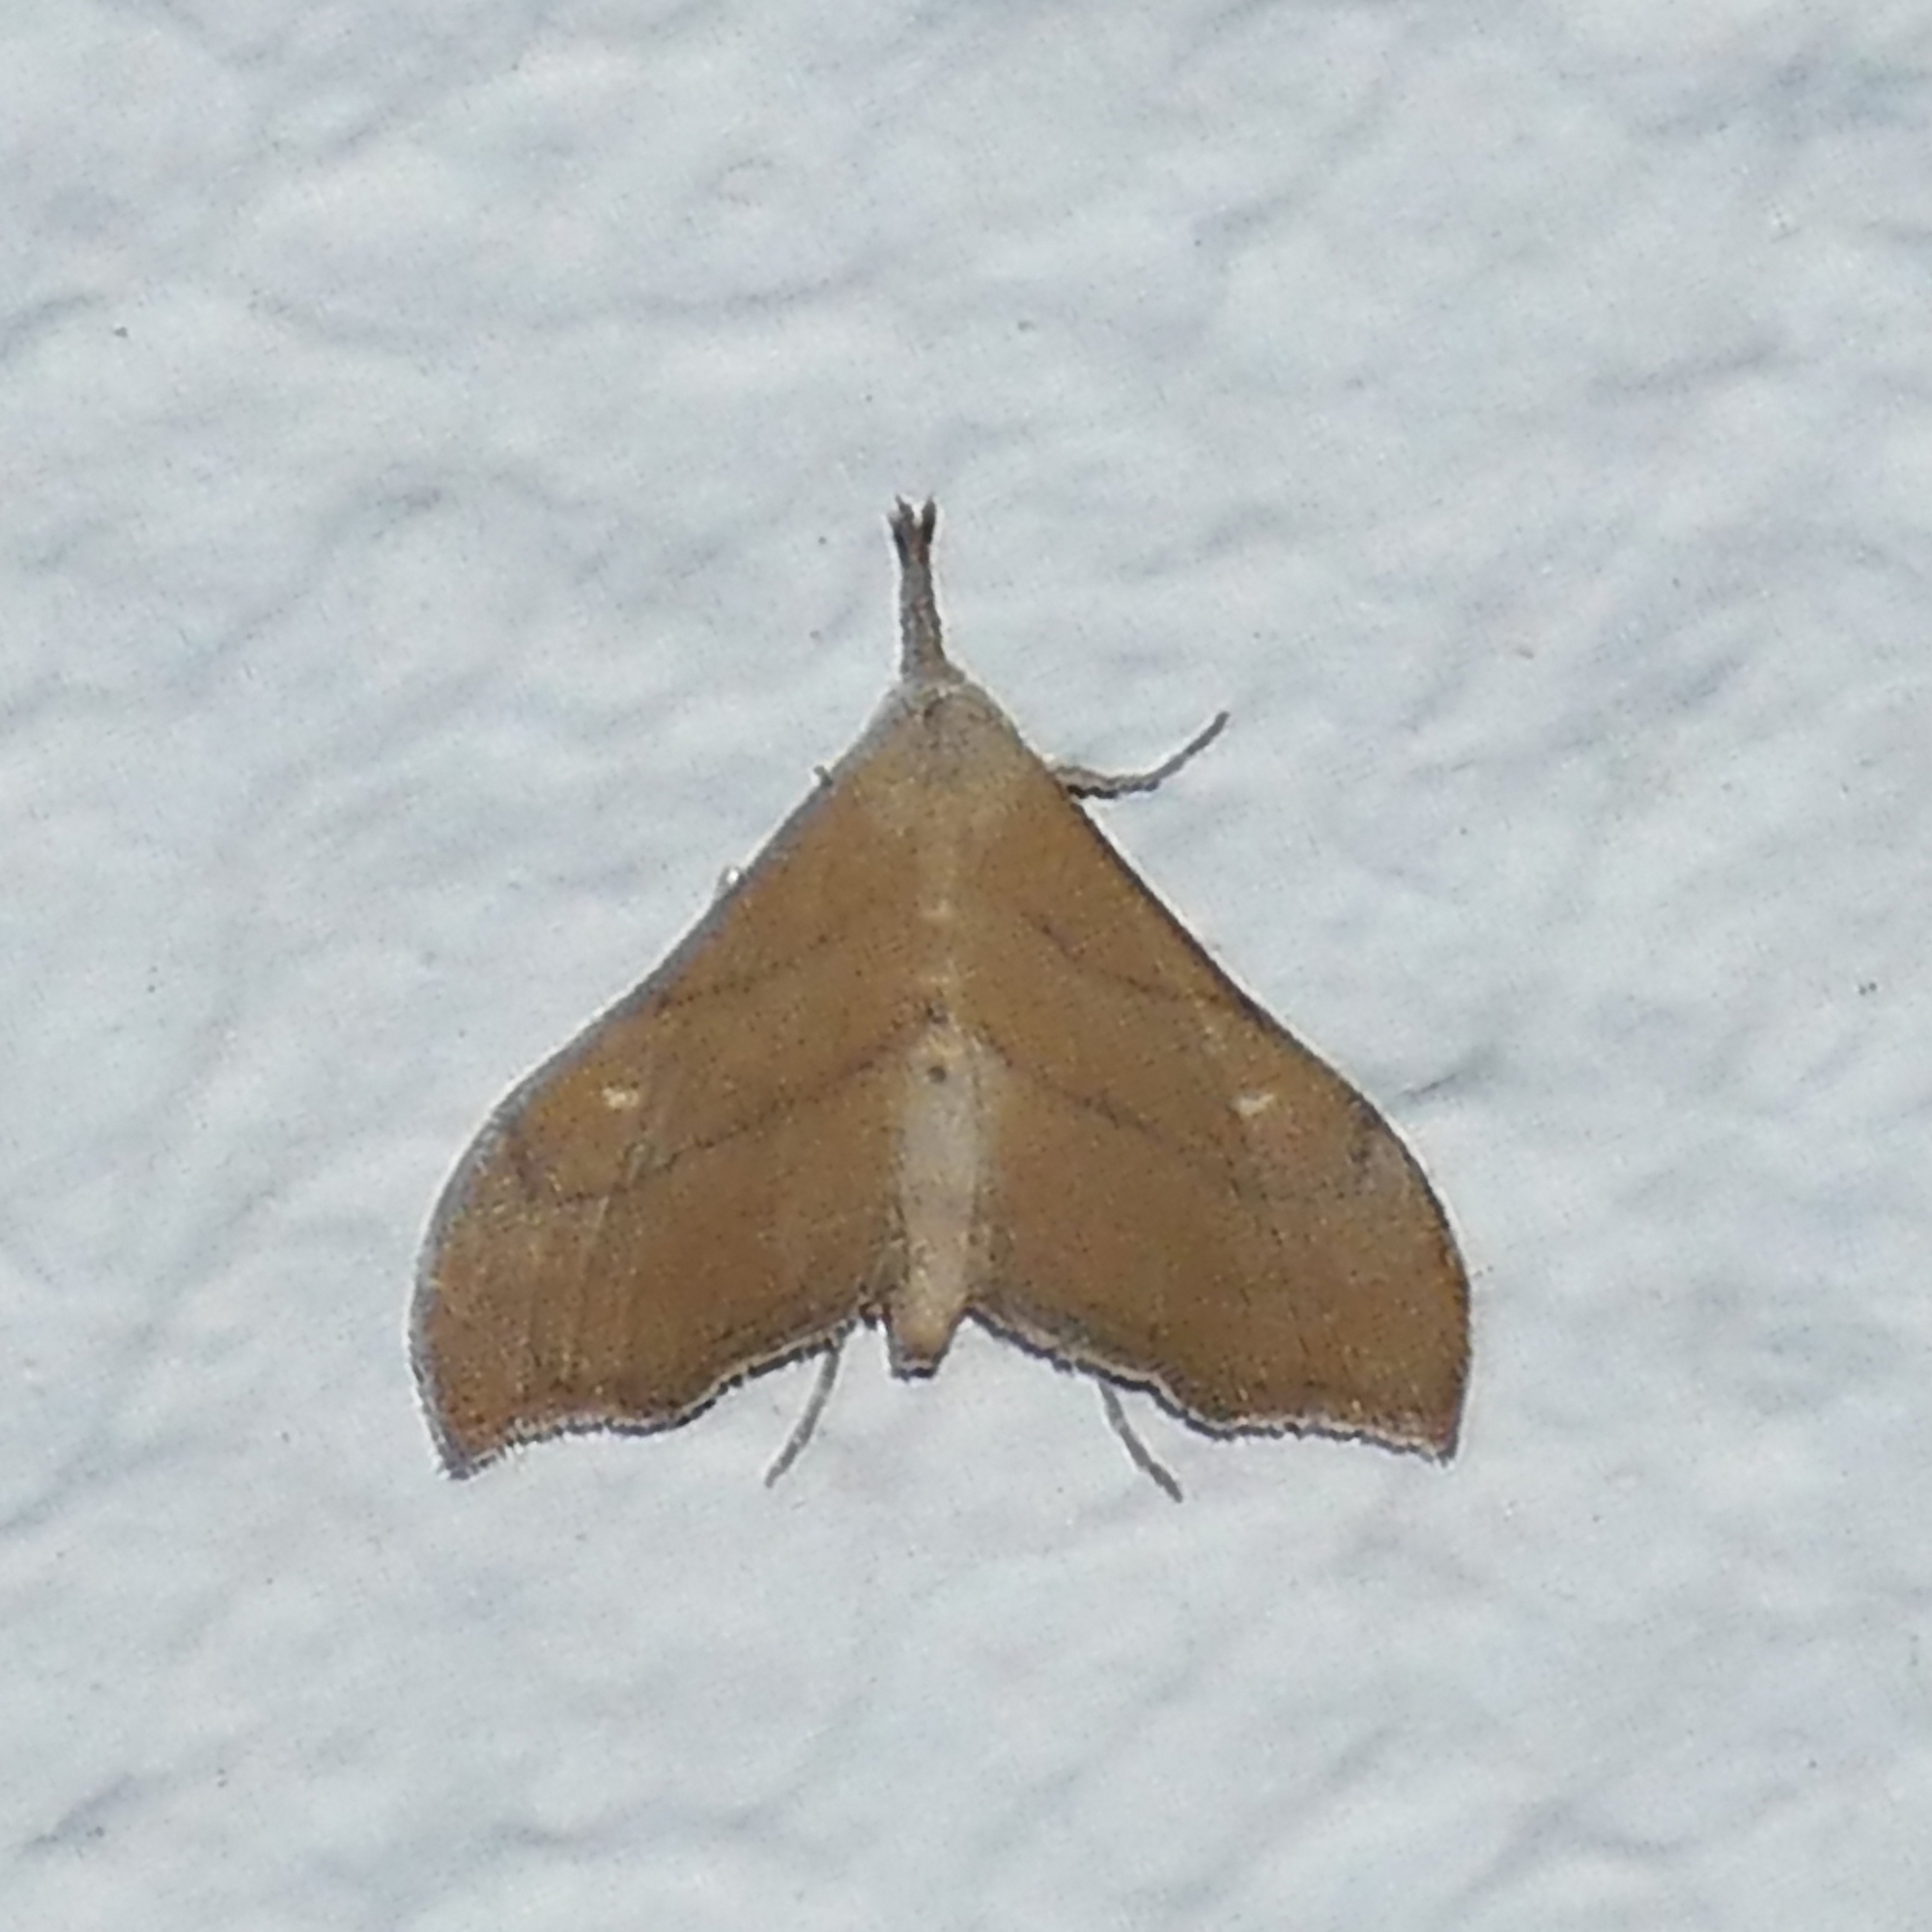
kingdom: Animalia
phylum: Arthropoda
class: Insecta
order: Lepidoptera
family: Erebidae
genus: Macristis
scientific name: Macristis schausi
